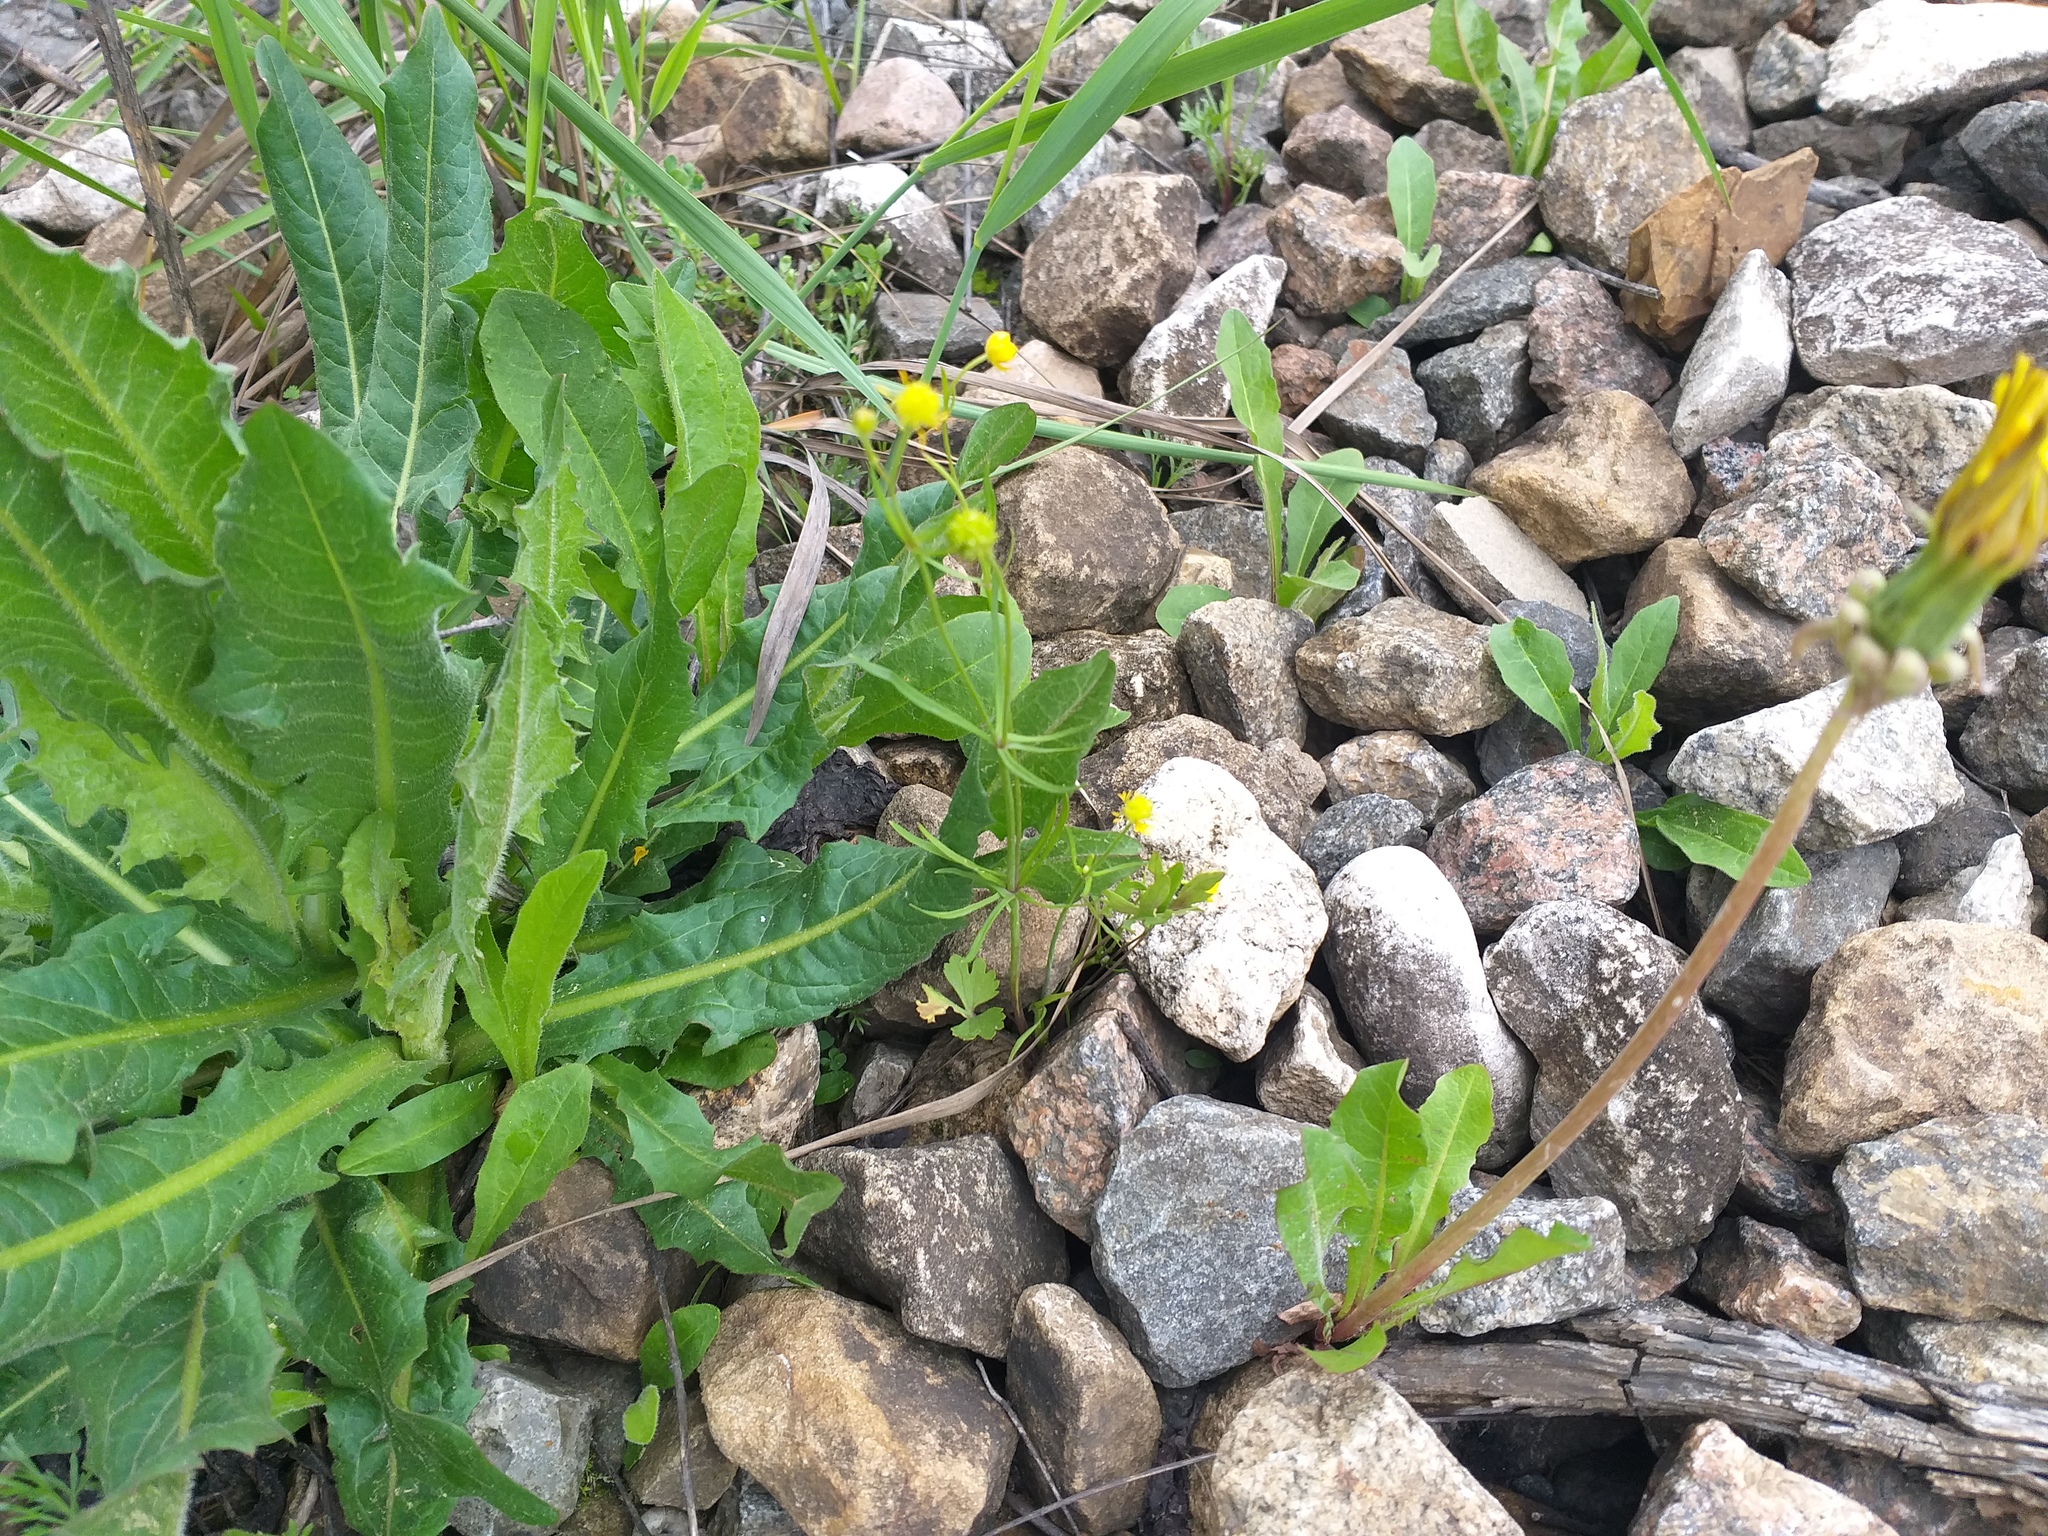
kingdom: Plantae
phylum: Tracheophyta
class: Magnoliopsida
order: Ranunculales
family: Ranunculaceae
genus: Ranunculus
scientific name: Ranunculus auricomus
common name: Goldilocks buttercup
